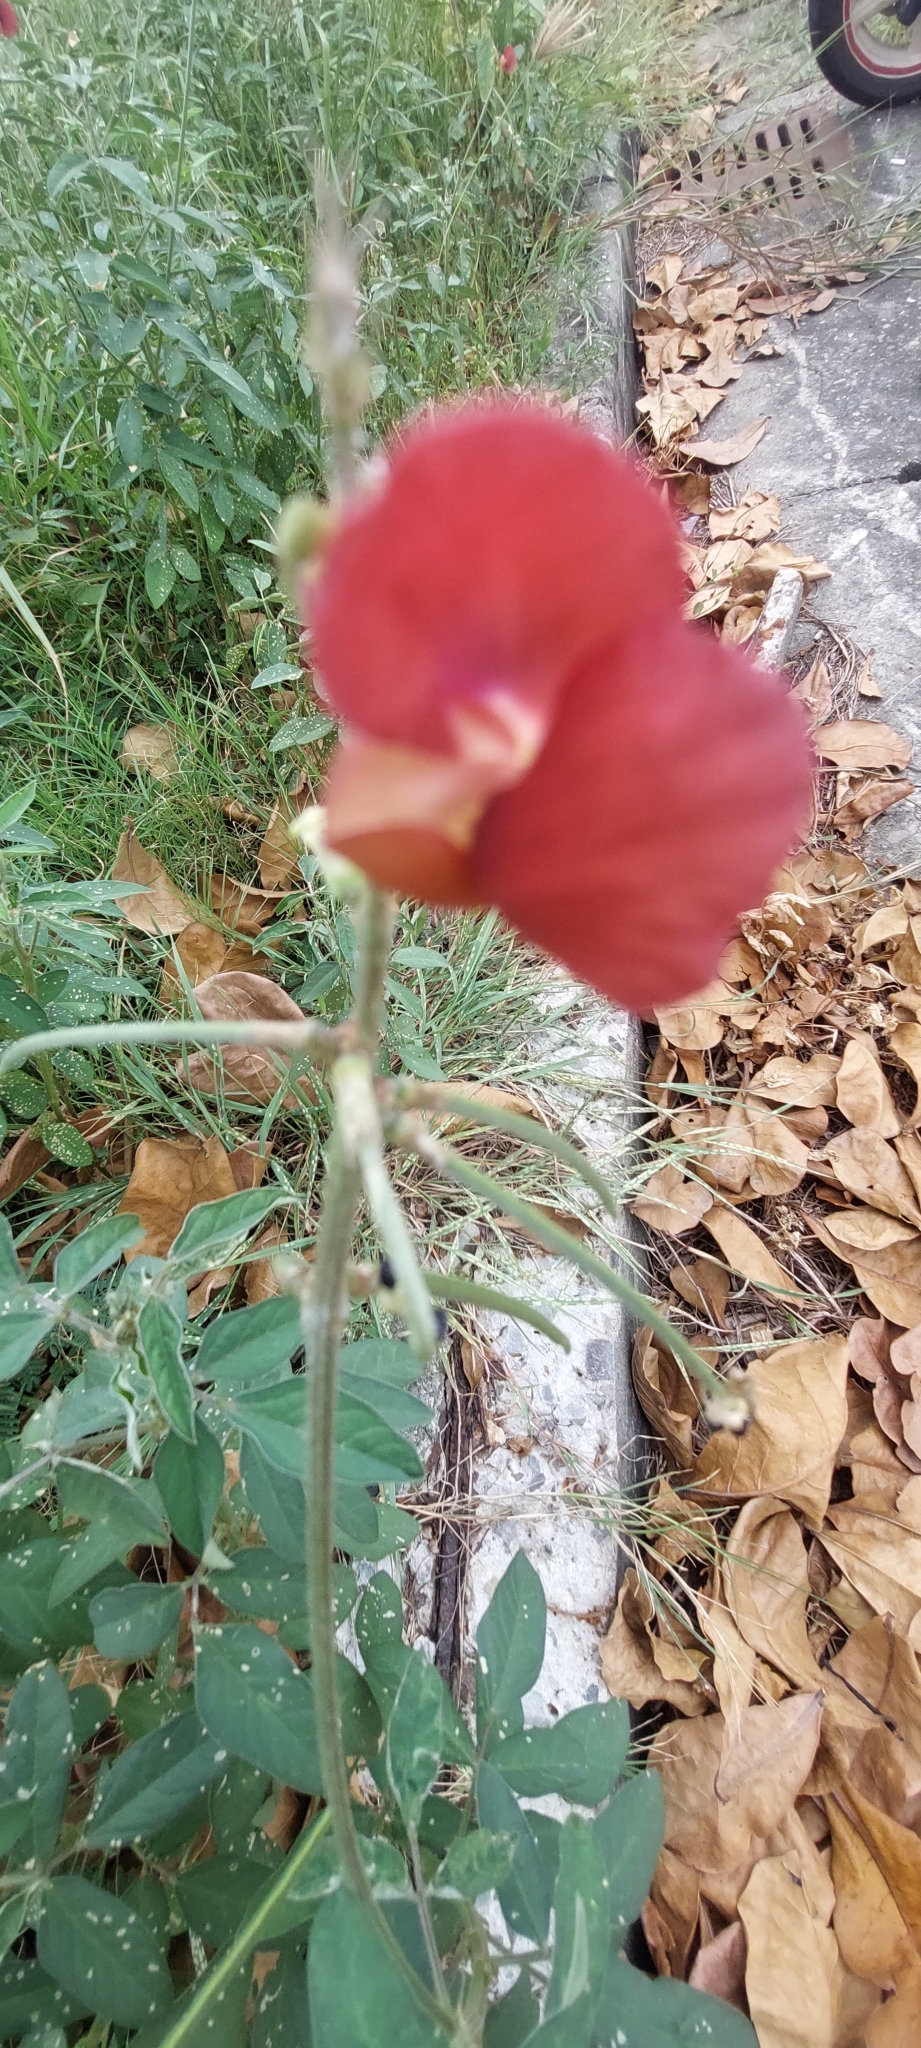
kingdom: Plantae
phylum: Tracheophyta
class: Magnoliopsida
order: Fabales
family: Fabaceae
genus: Macroptilium
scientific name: Macroptilium lathyroides
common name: Wild bushbean
